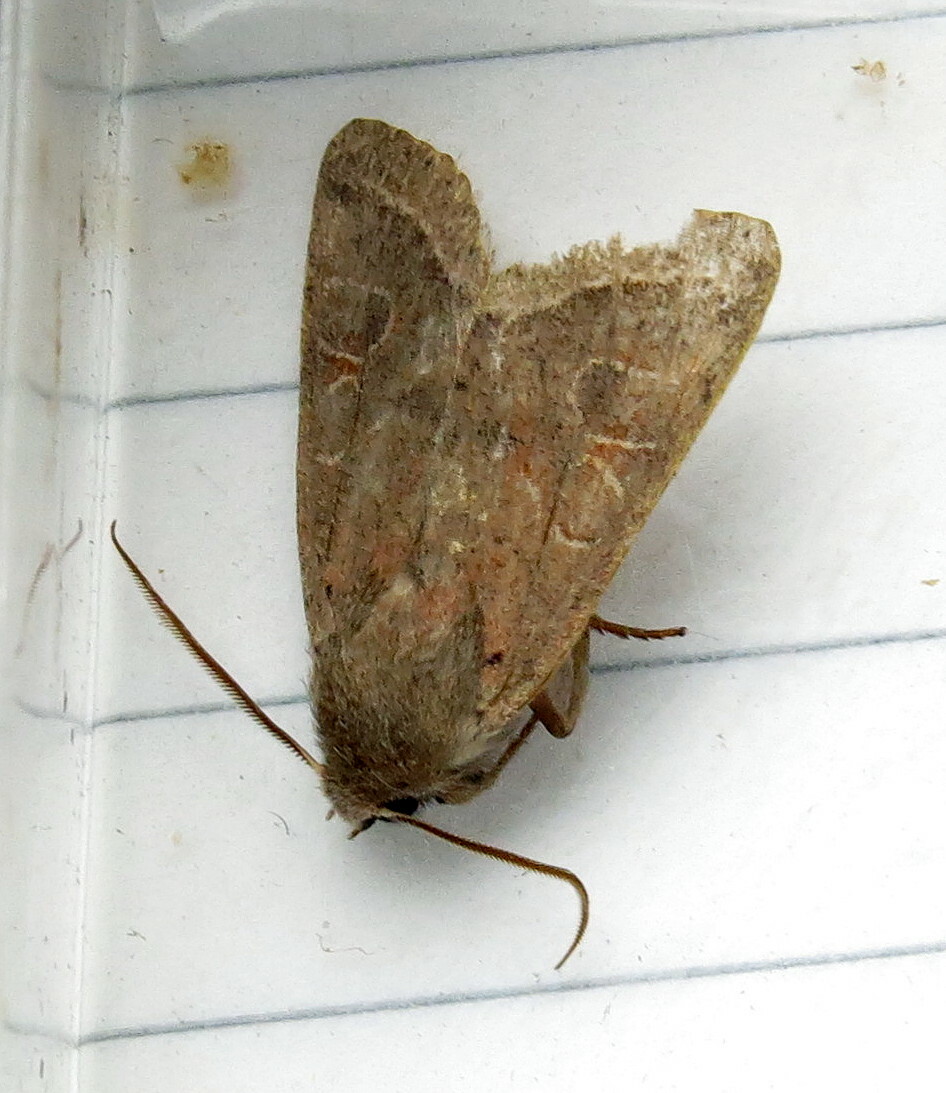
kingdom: Animalia
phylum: Arthropoda
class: Insecta
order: Lepidoptera
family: Noctuidae
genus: Orthosia
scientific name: Orthosia cerasi
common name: Common quaker
